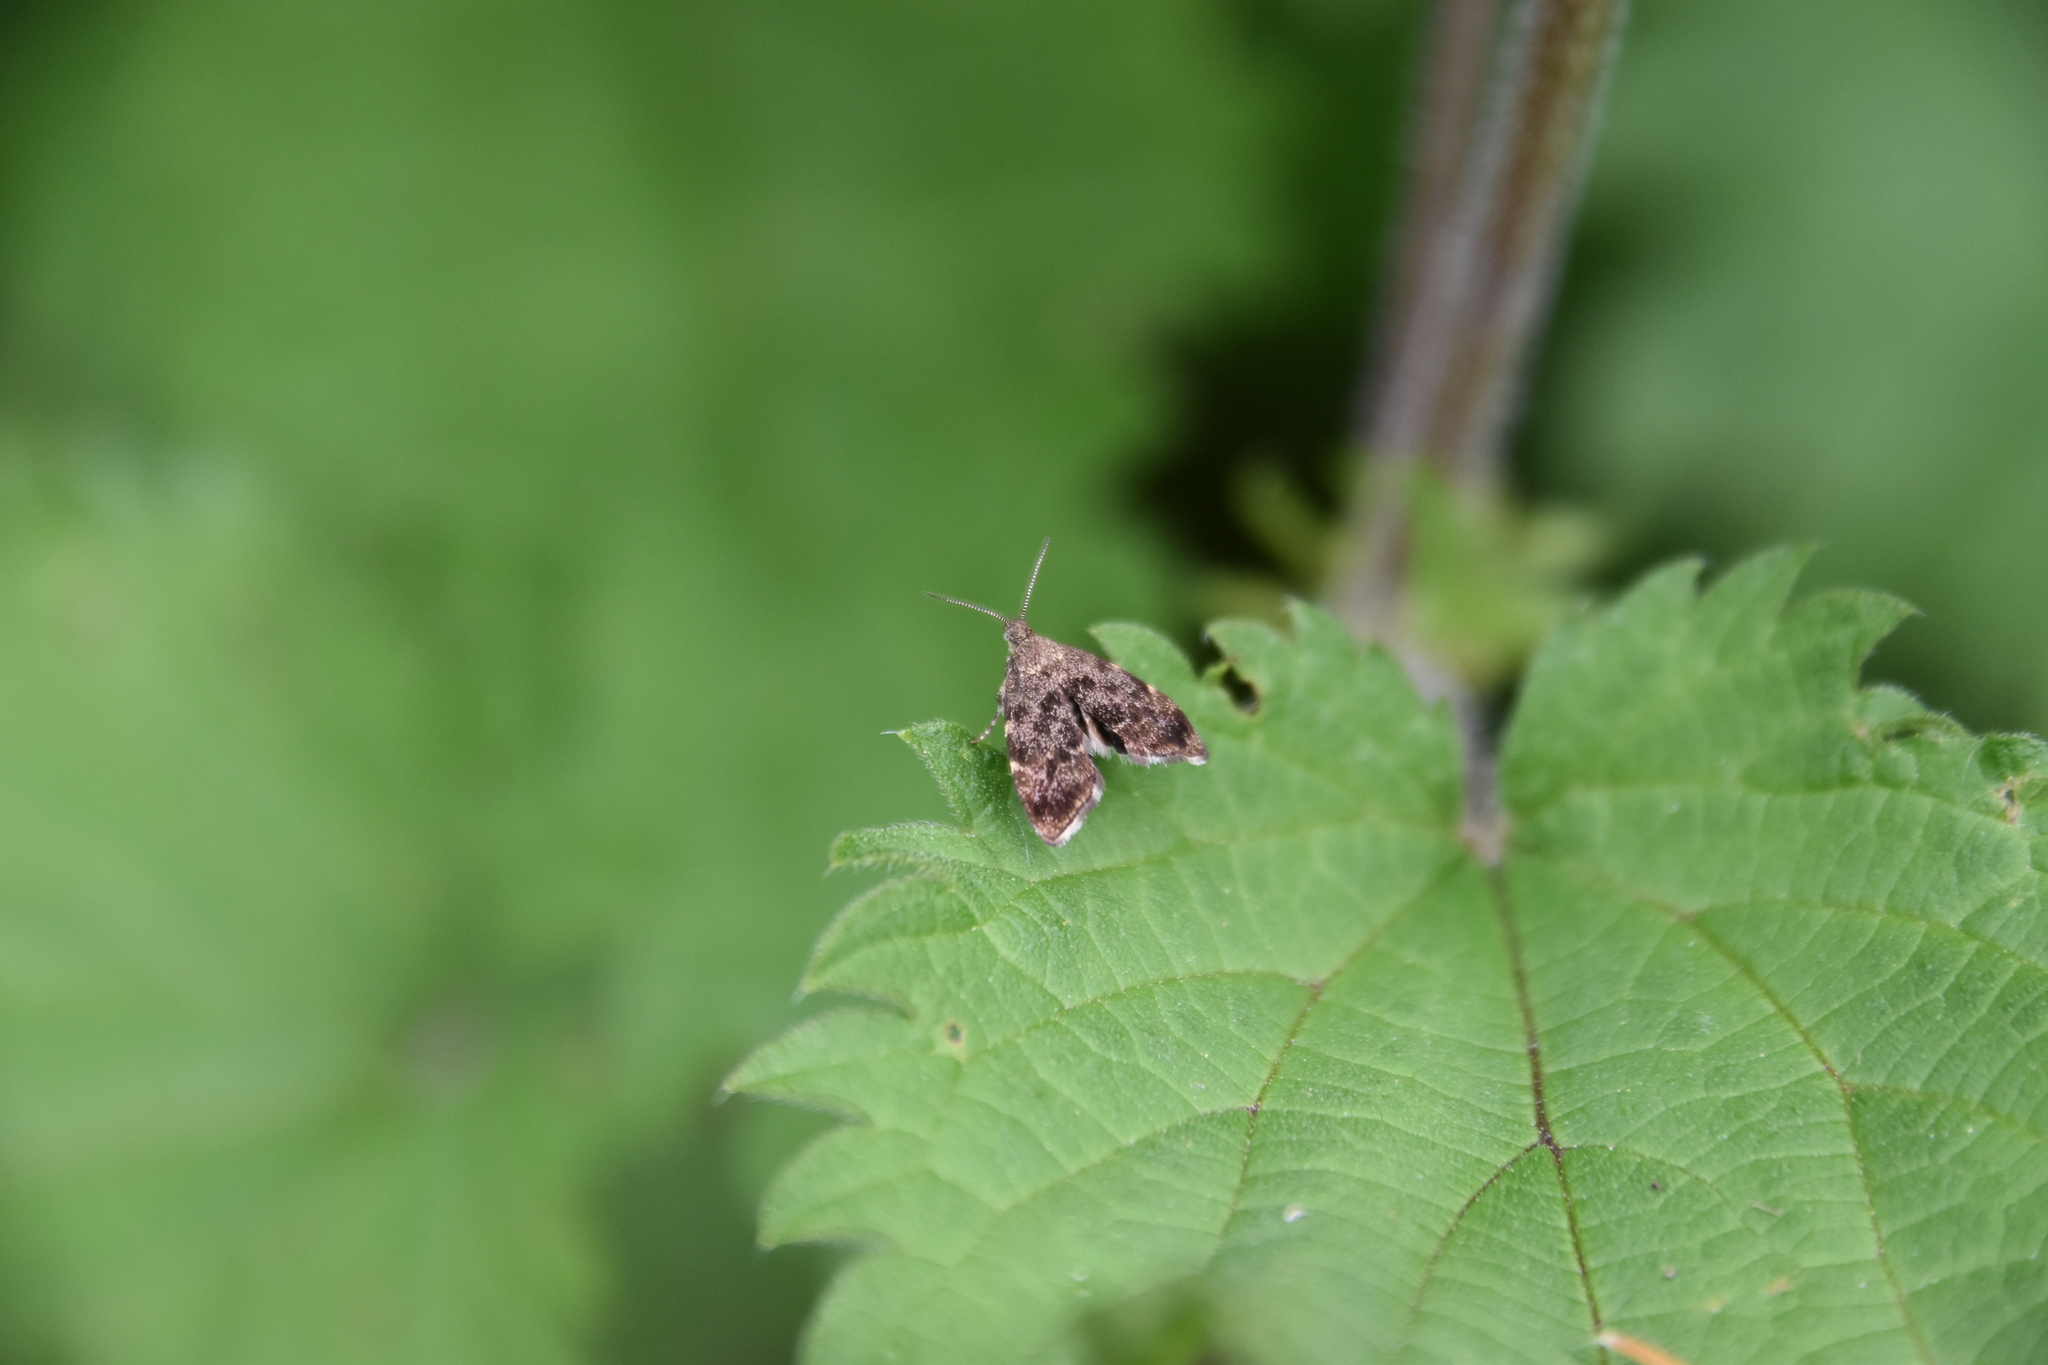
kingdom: Animalia
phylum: Arthropoda
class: Insecta
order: Lepidoptera
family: Choreutidae
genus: Anthophila
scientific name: Anthophila fabriciana
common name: Nettle-tap
